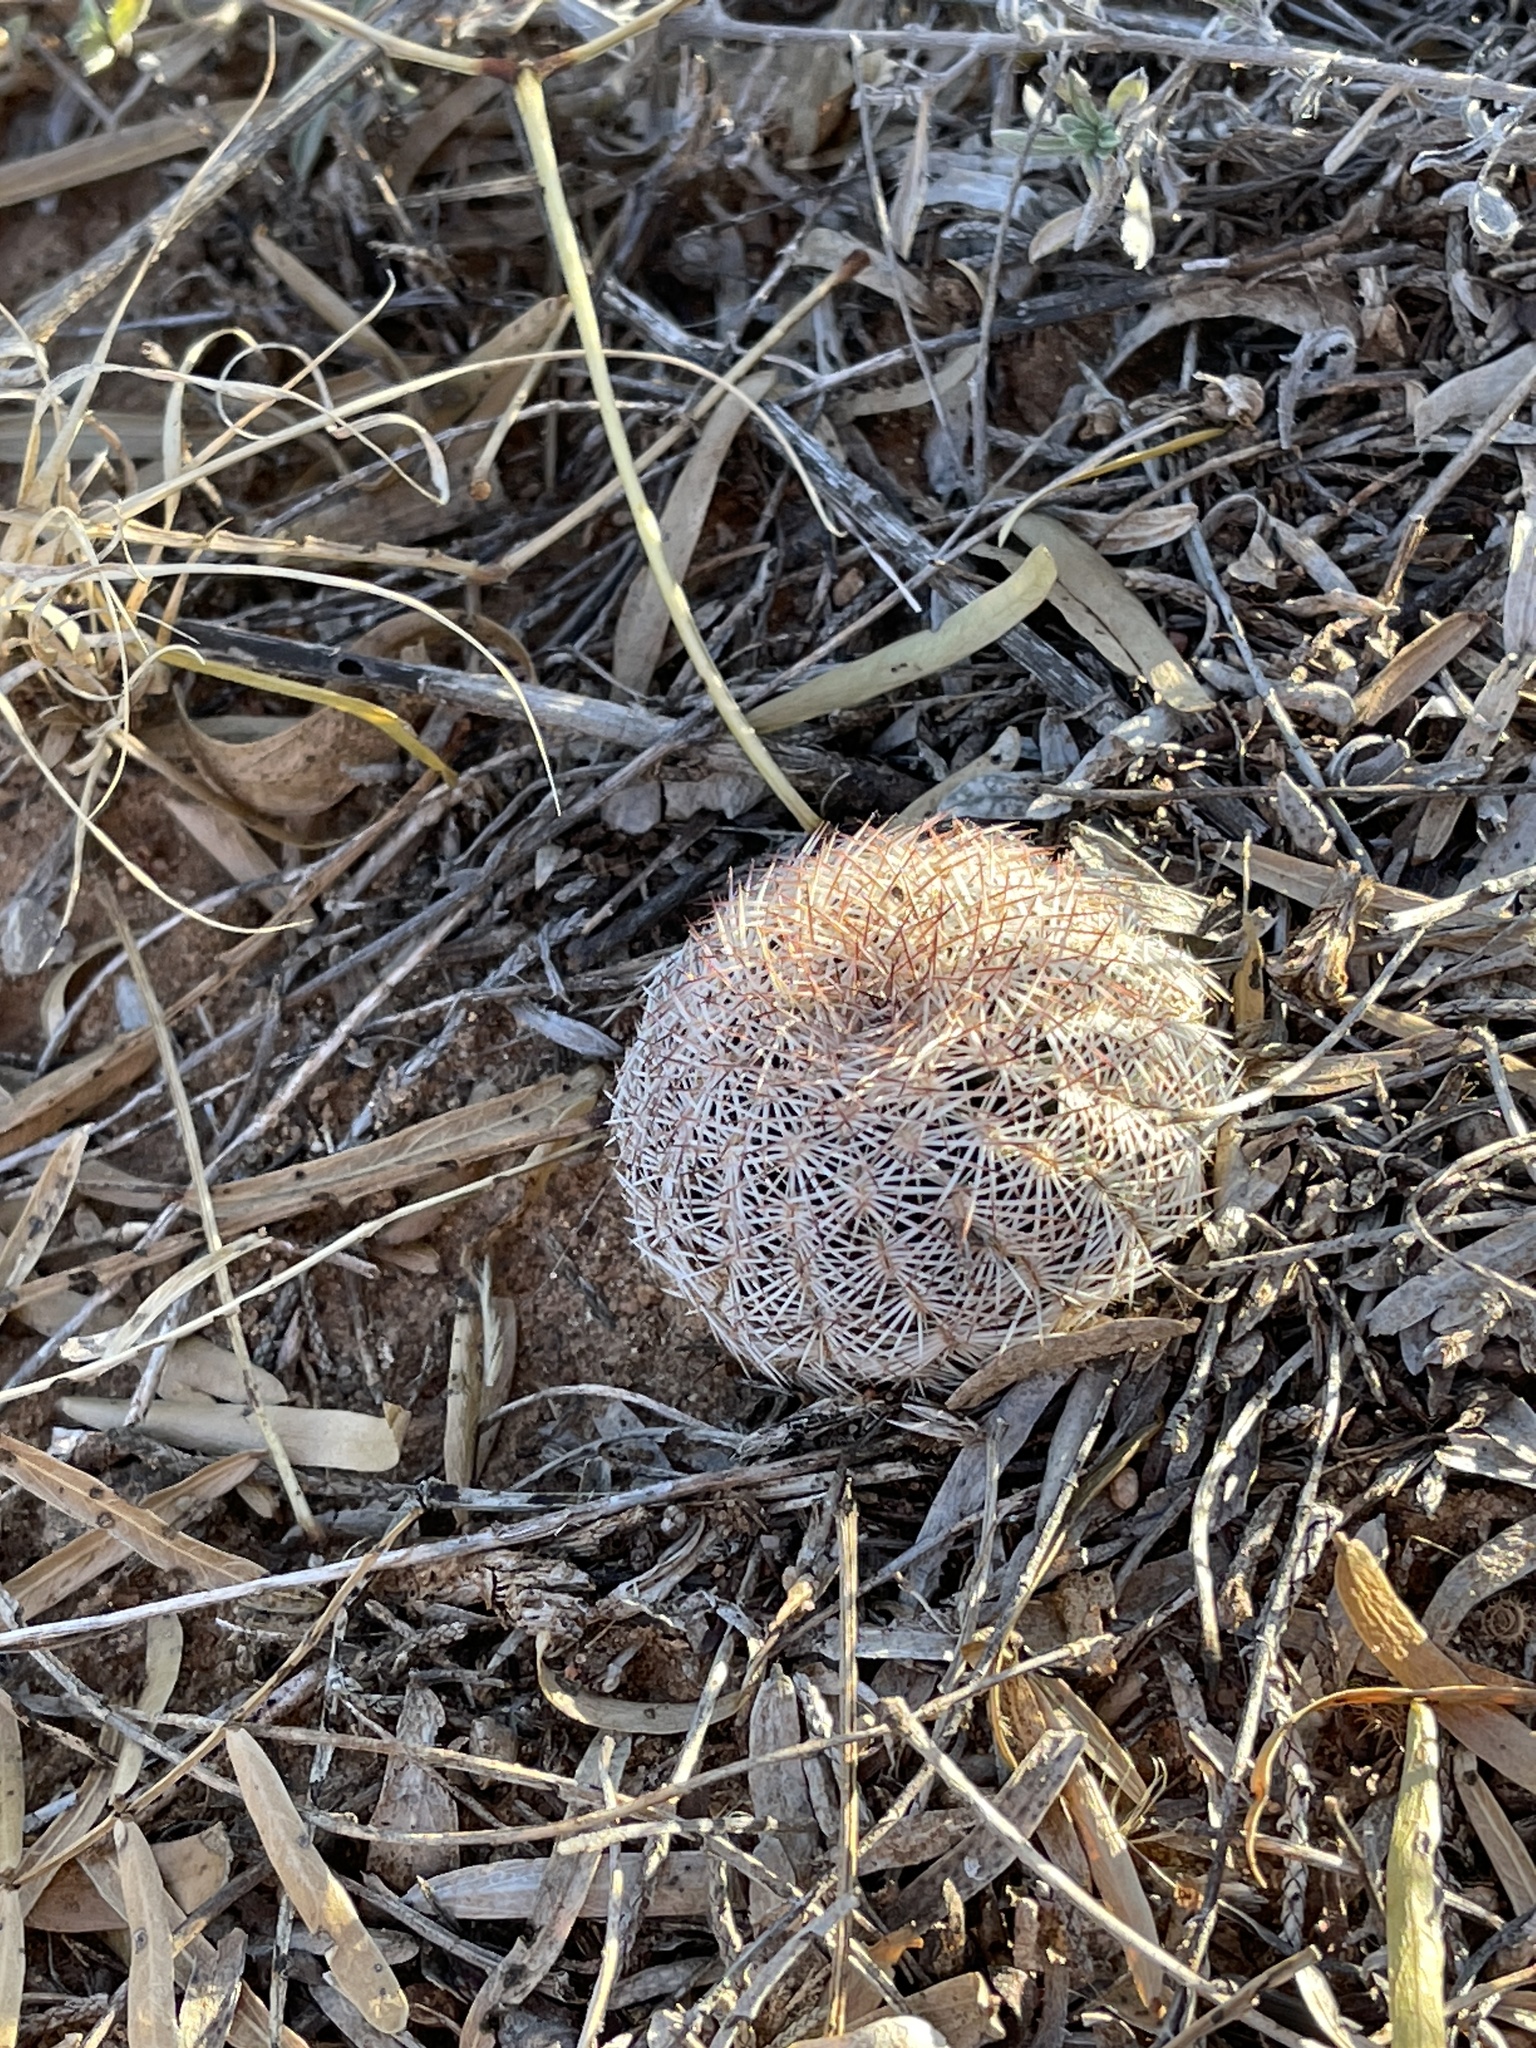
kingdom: Plantae
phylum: Tracheophyta
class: Magnoliopsida
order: Caryophyllales
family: Cactaceae
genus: Echinocereus
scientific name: Echinocereus reichenbachii
